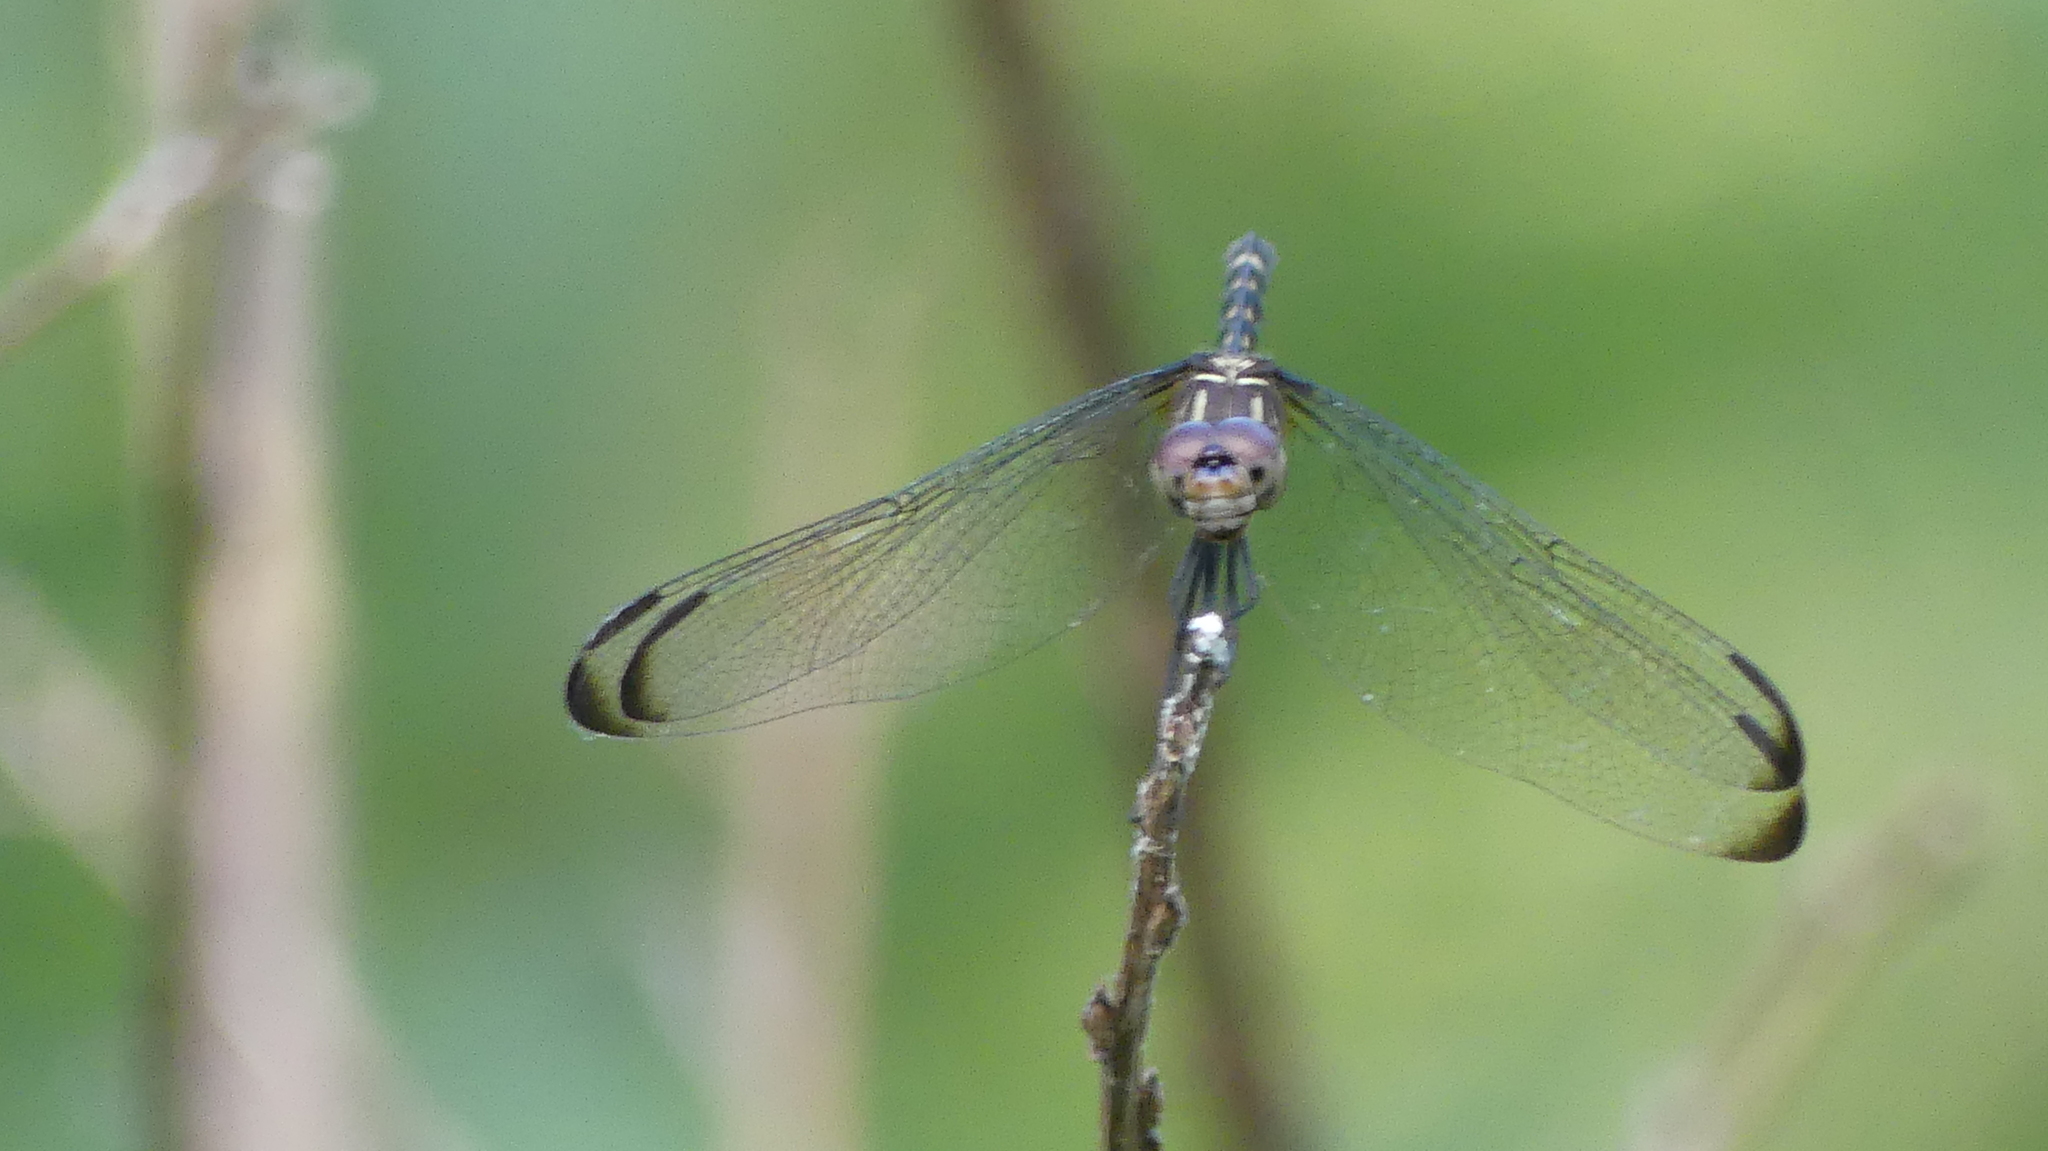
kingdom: Animalia
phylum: Arthropoda
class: Insecta
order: Odonata
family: Libellulidae
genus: Dythemis
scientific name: Dythemis nigrescens
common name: Black setwing
